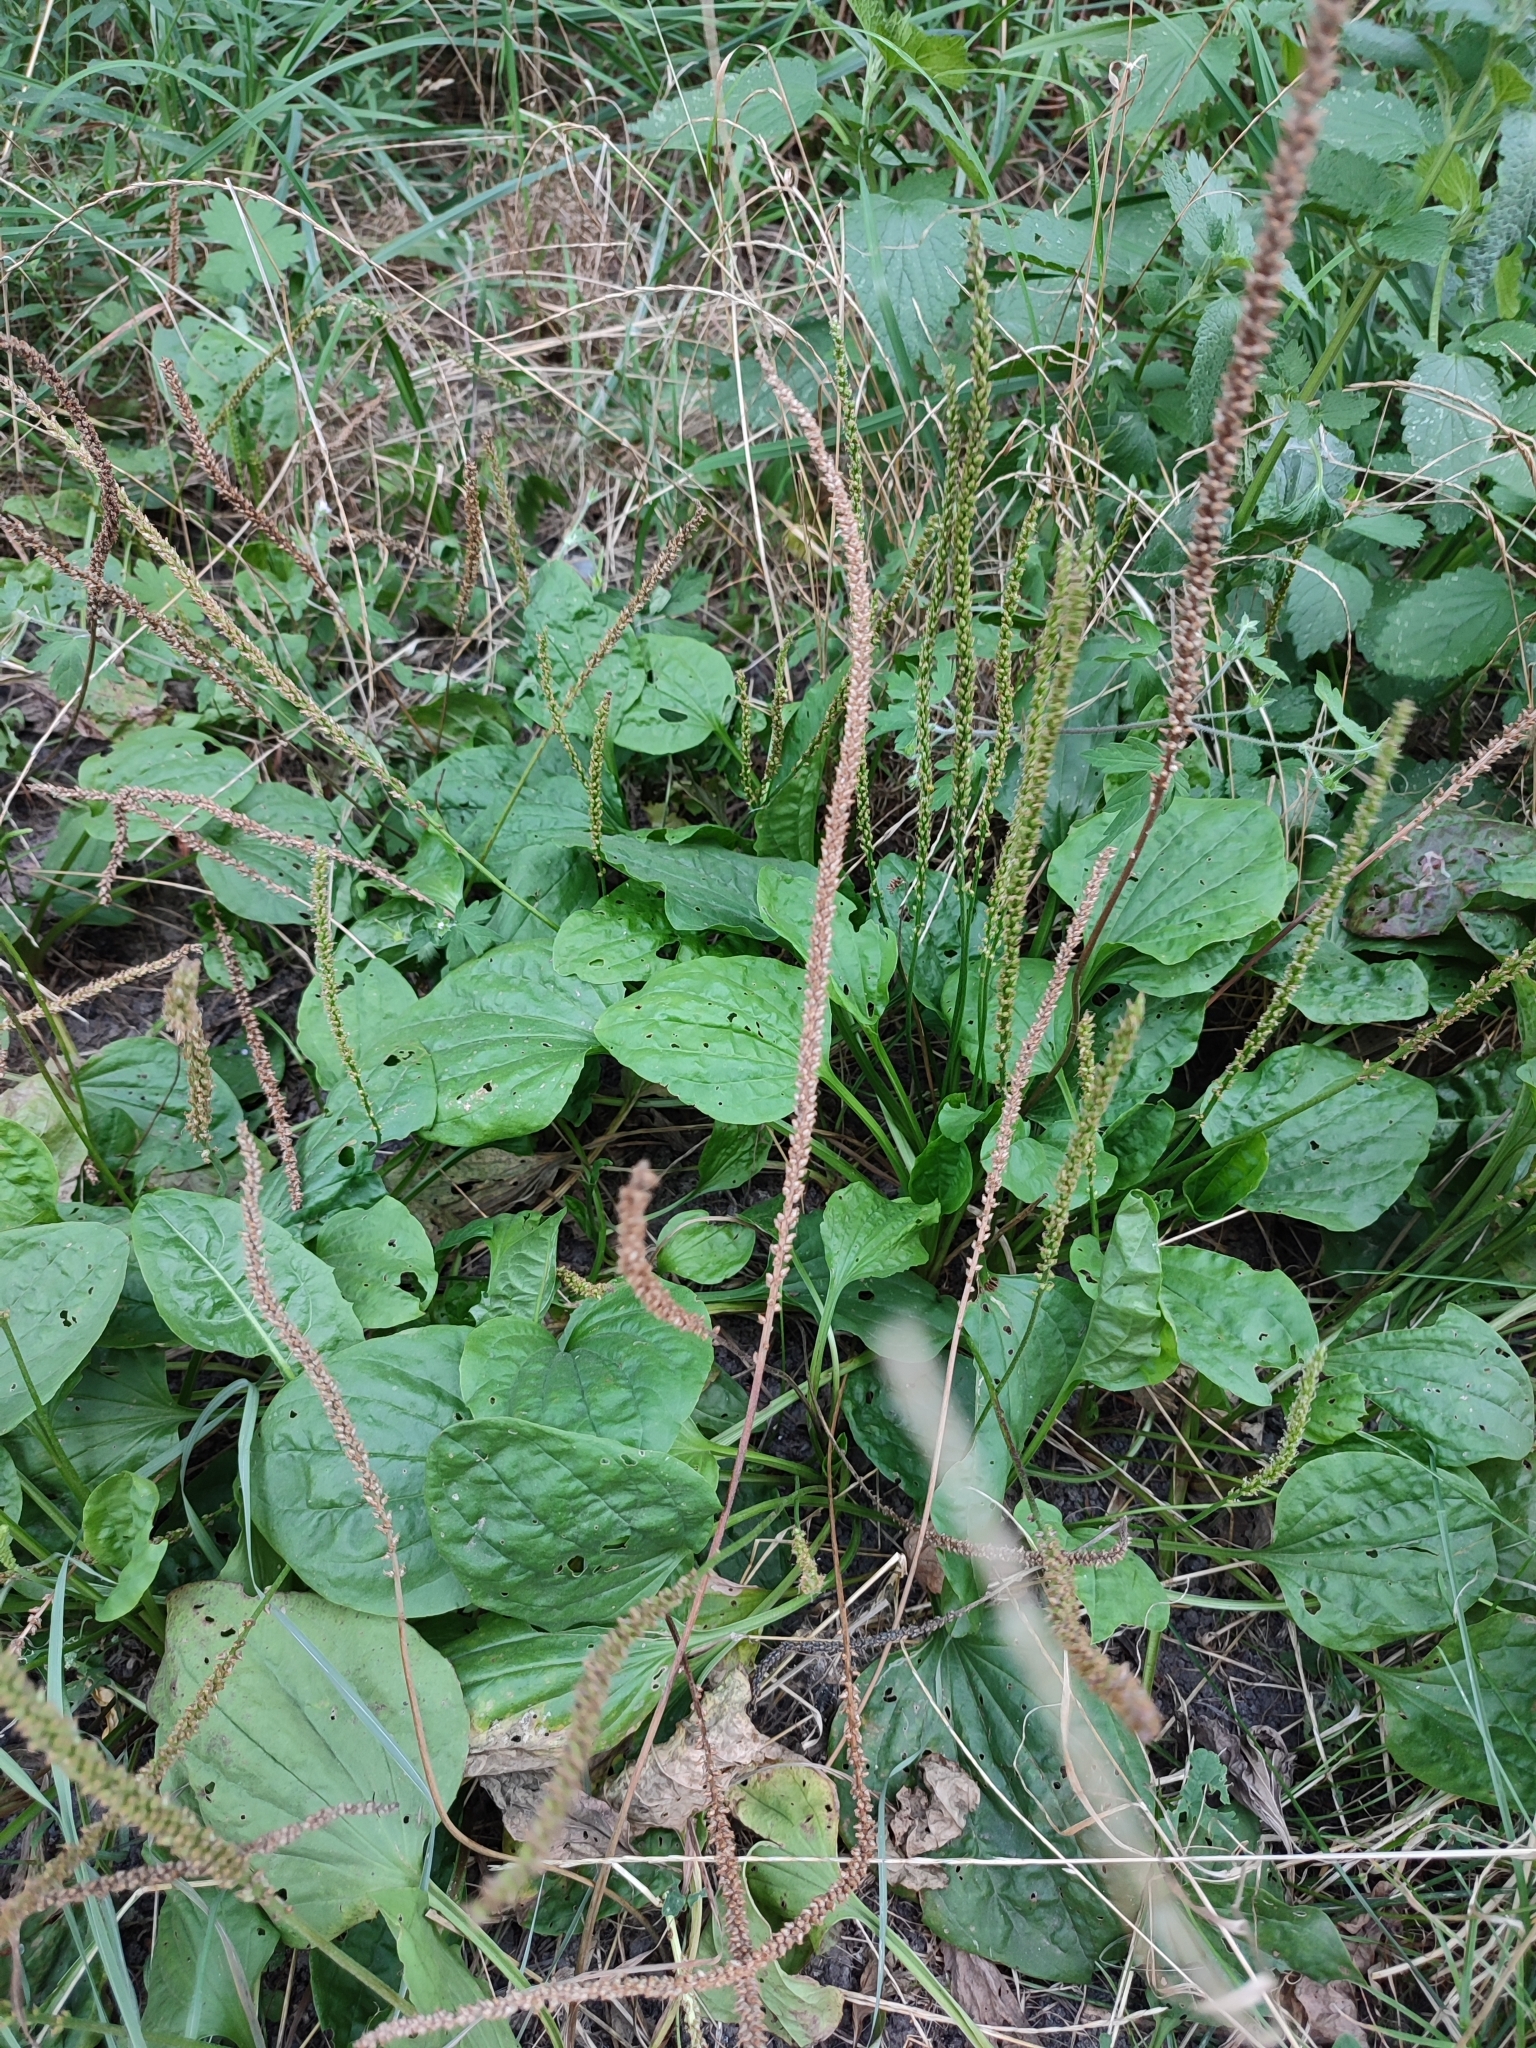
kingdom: Plantae
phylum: Tracheophyta
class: Magnoliopsida
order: Lamiales
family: Plantaginaceae
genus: Plantago
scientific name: Plantago major
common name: Common plantain
